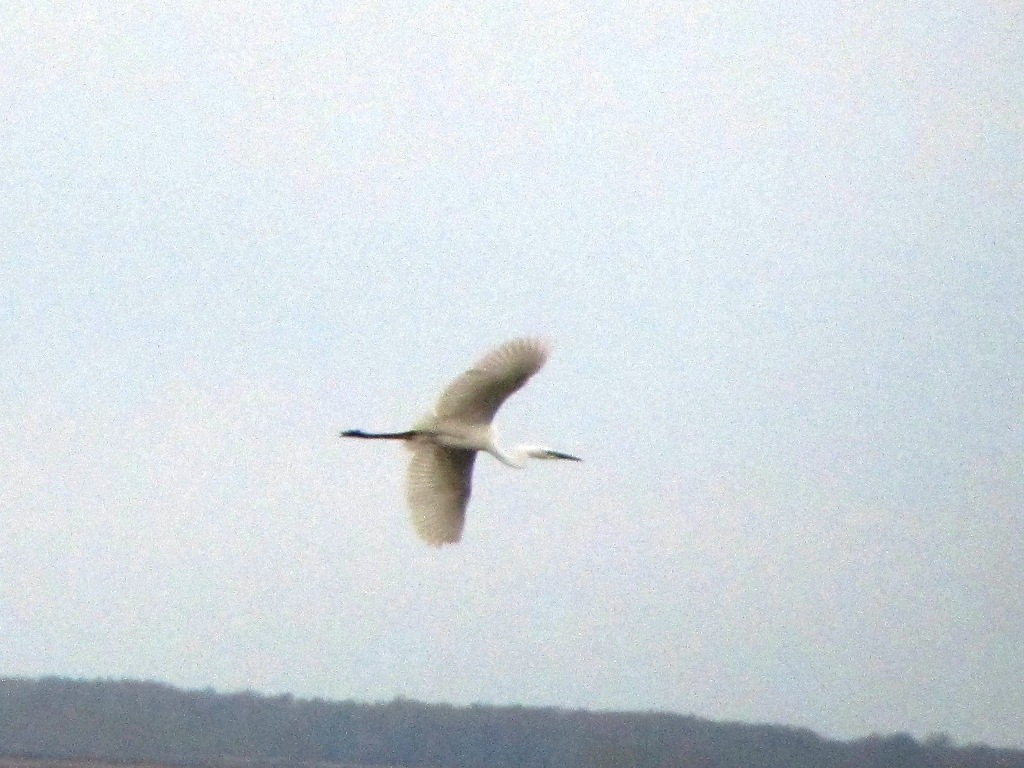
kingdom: Animalia
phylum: Chordata
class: Aves
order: Pelecaniformes
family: Ardeidae
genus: Ardea
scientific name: Ardea alba
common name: Great egret
